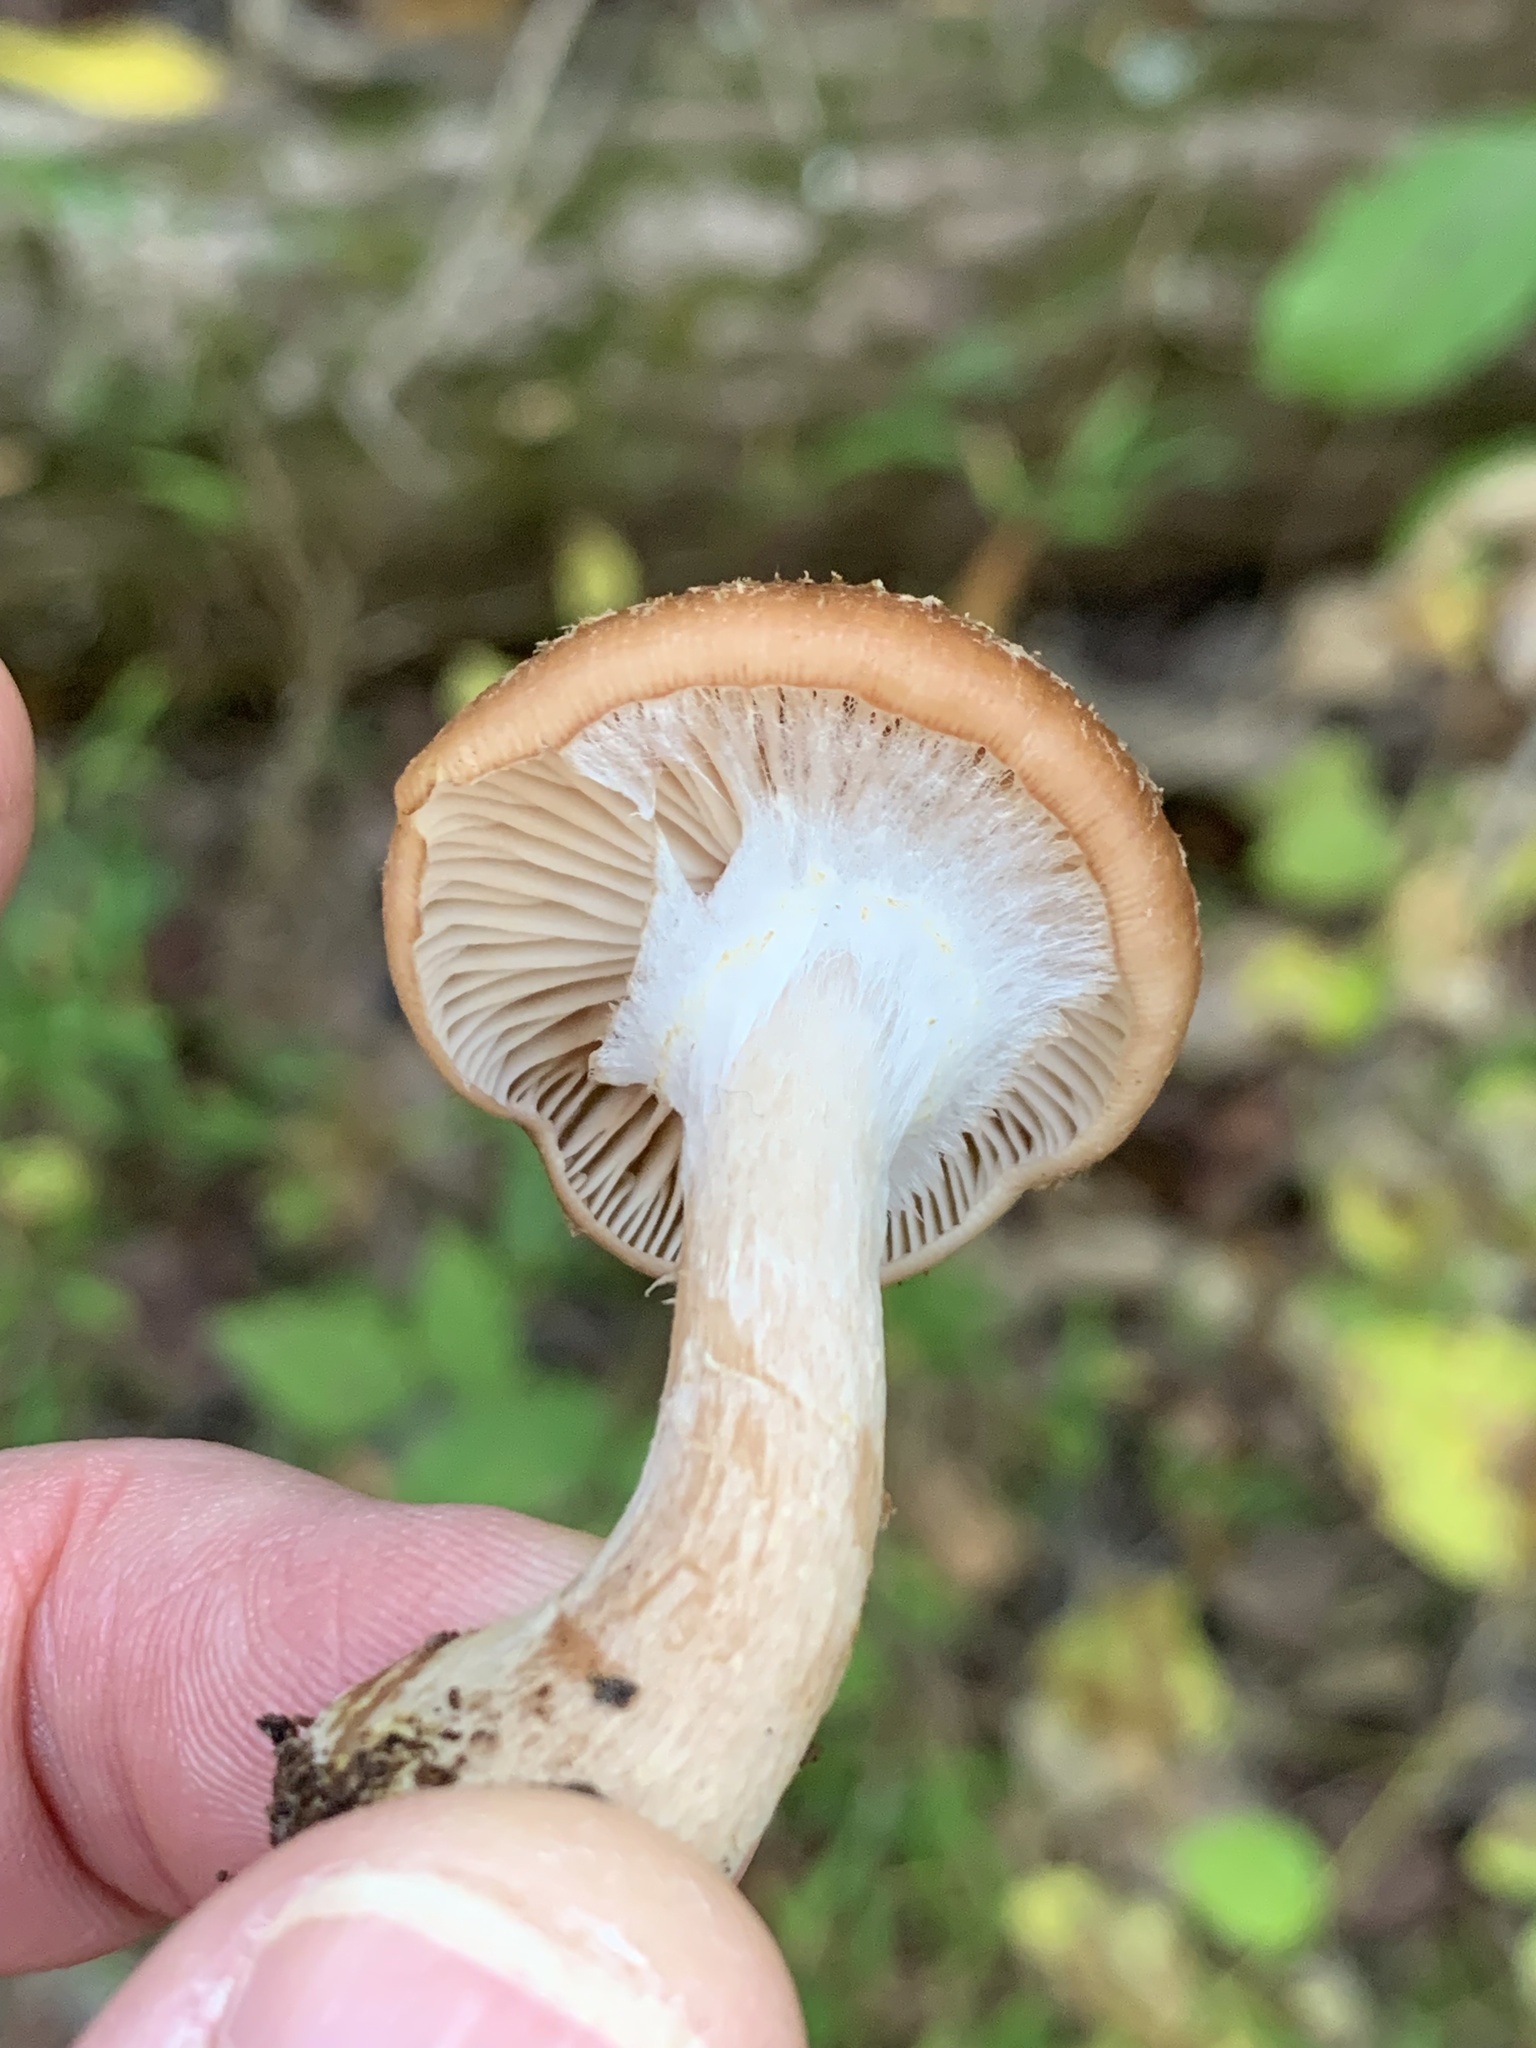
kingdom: Fungi
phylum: Basidiomycota
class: Agaricomycetes
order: Agaricales
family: Physalacriaceae
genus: Armillaria
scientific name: Armillaria gallica
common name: Bulbous honey fungus
